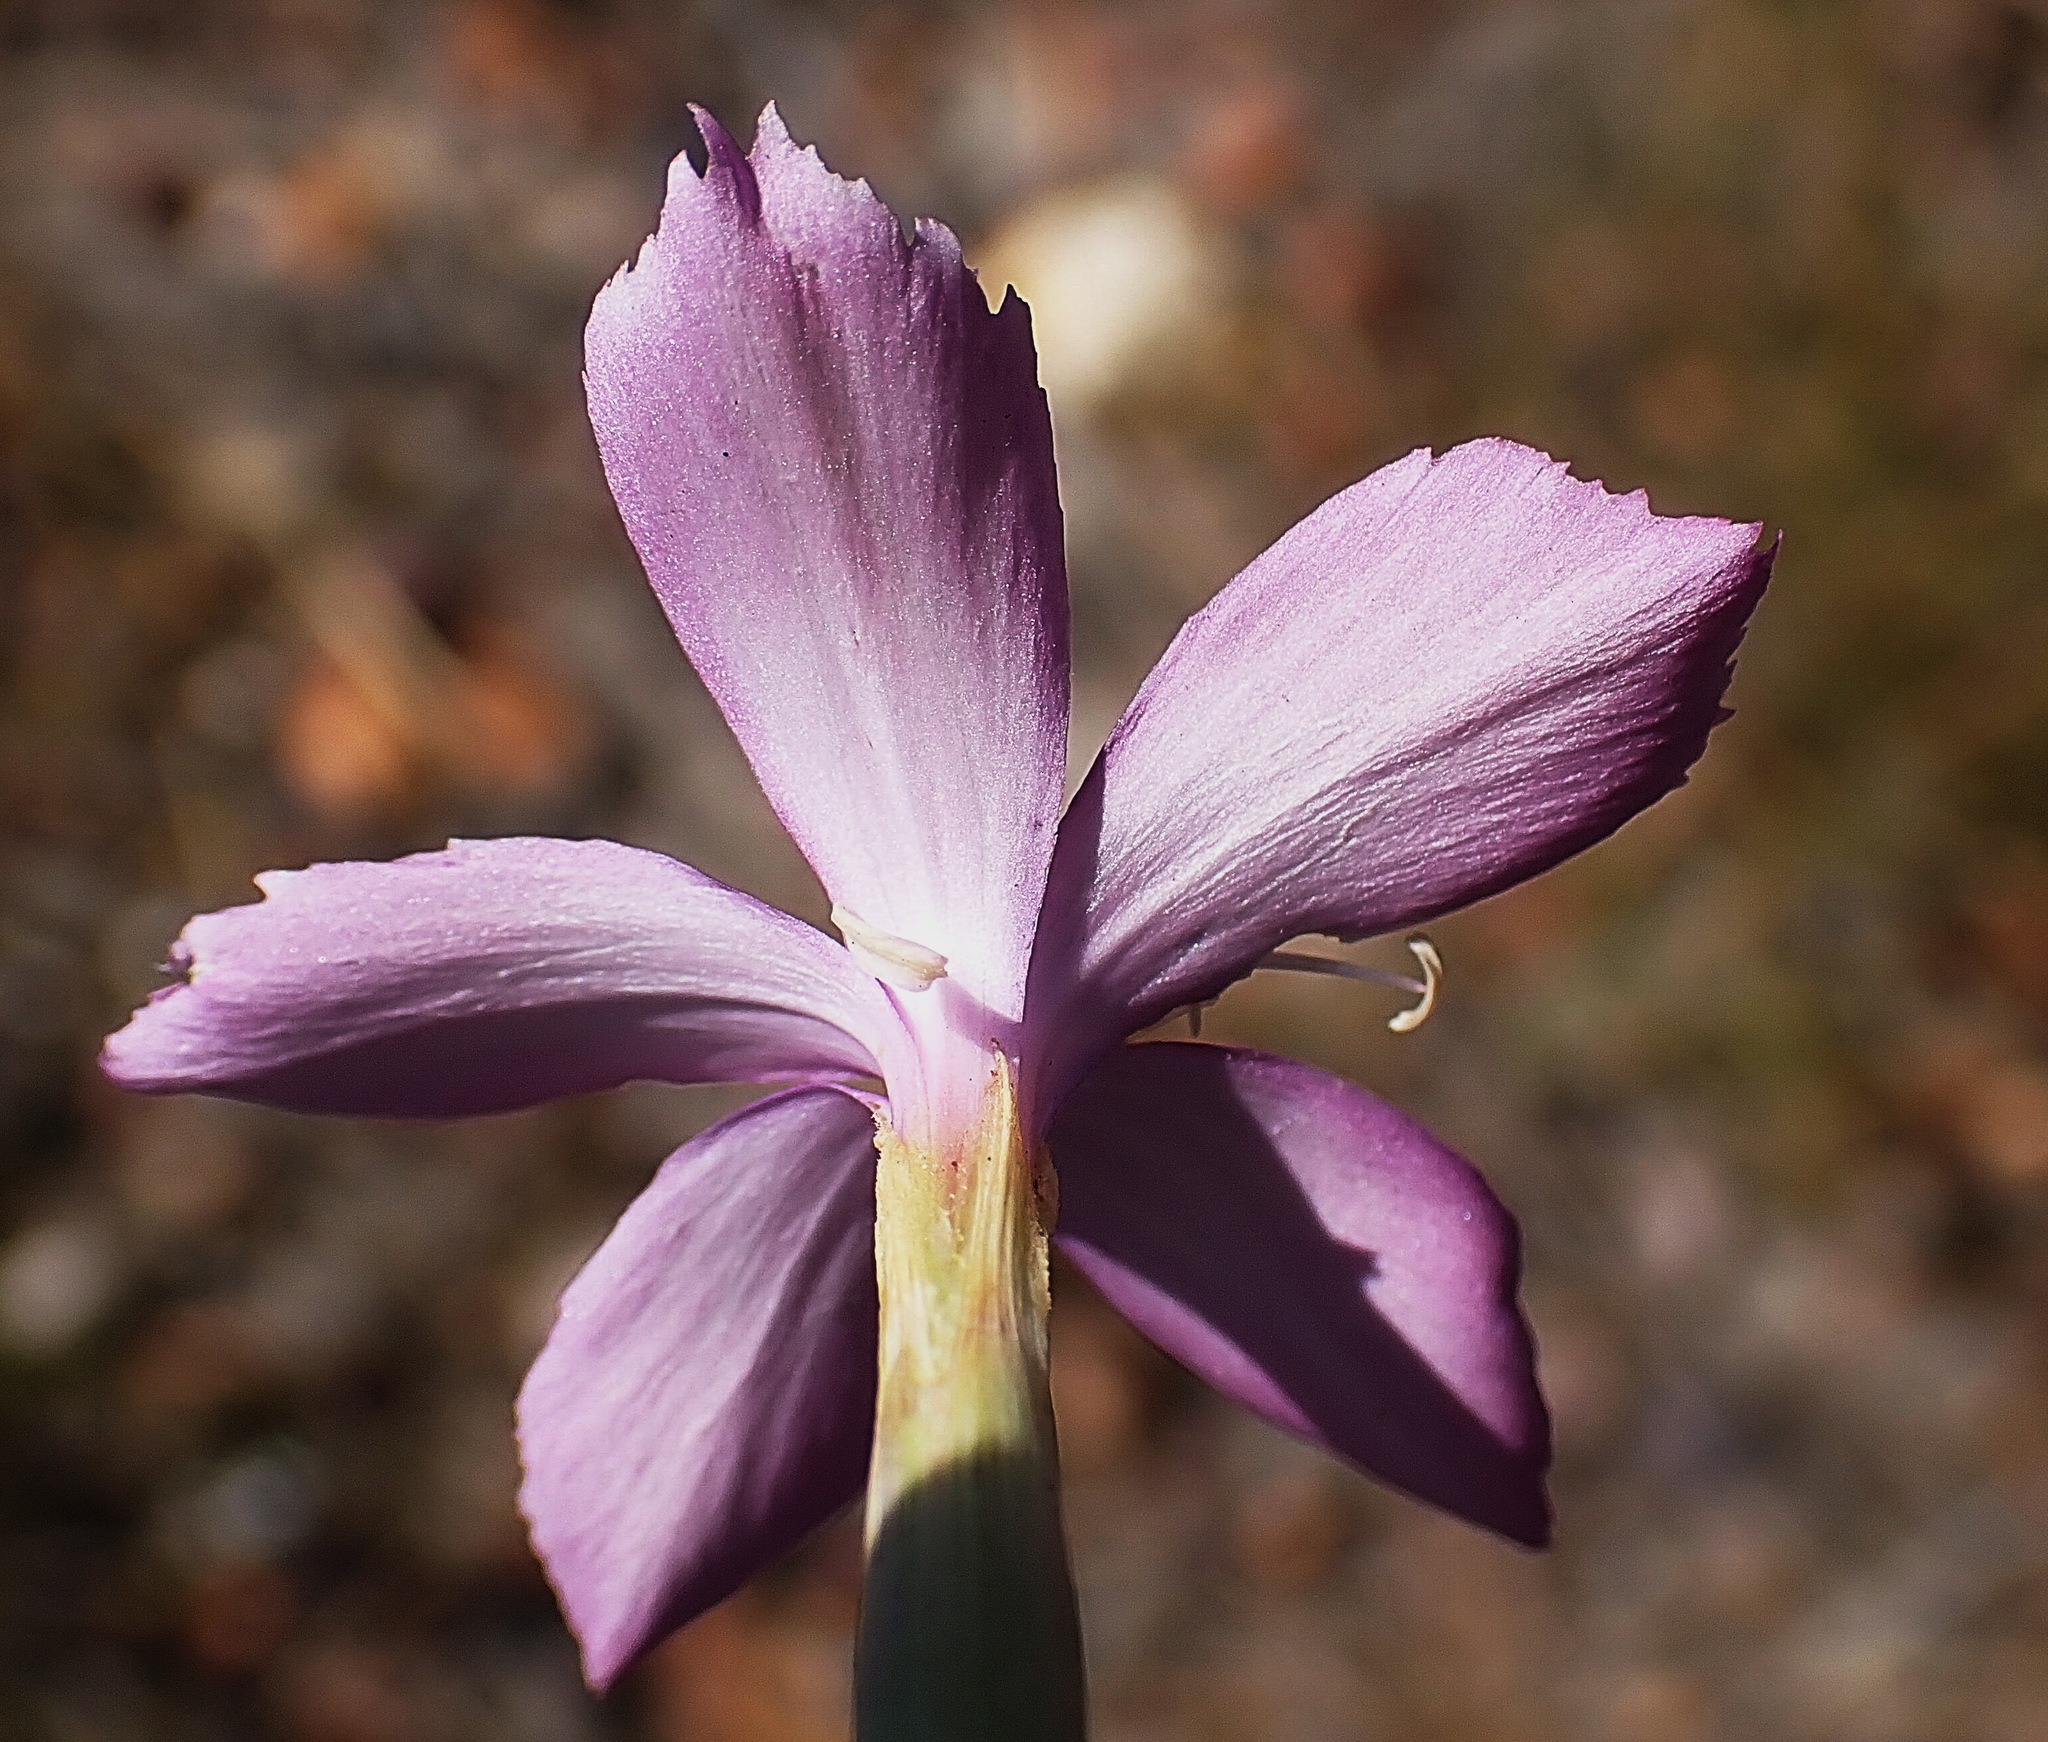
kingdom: Plantae
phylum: Tracheophyta
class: Magnoliopsida
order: Caryophyllales
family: Caryophyllaceae
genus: Dianthus
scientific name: Dianthus thunbergii
